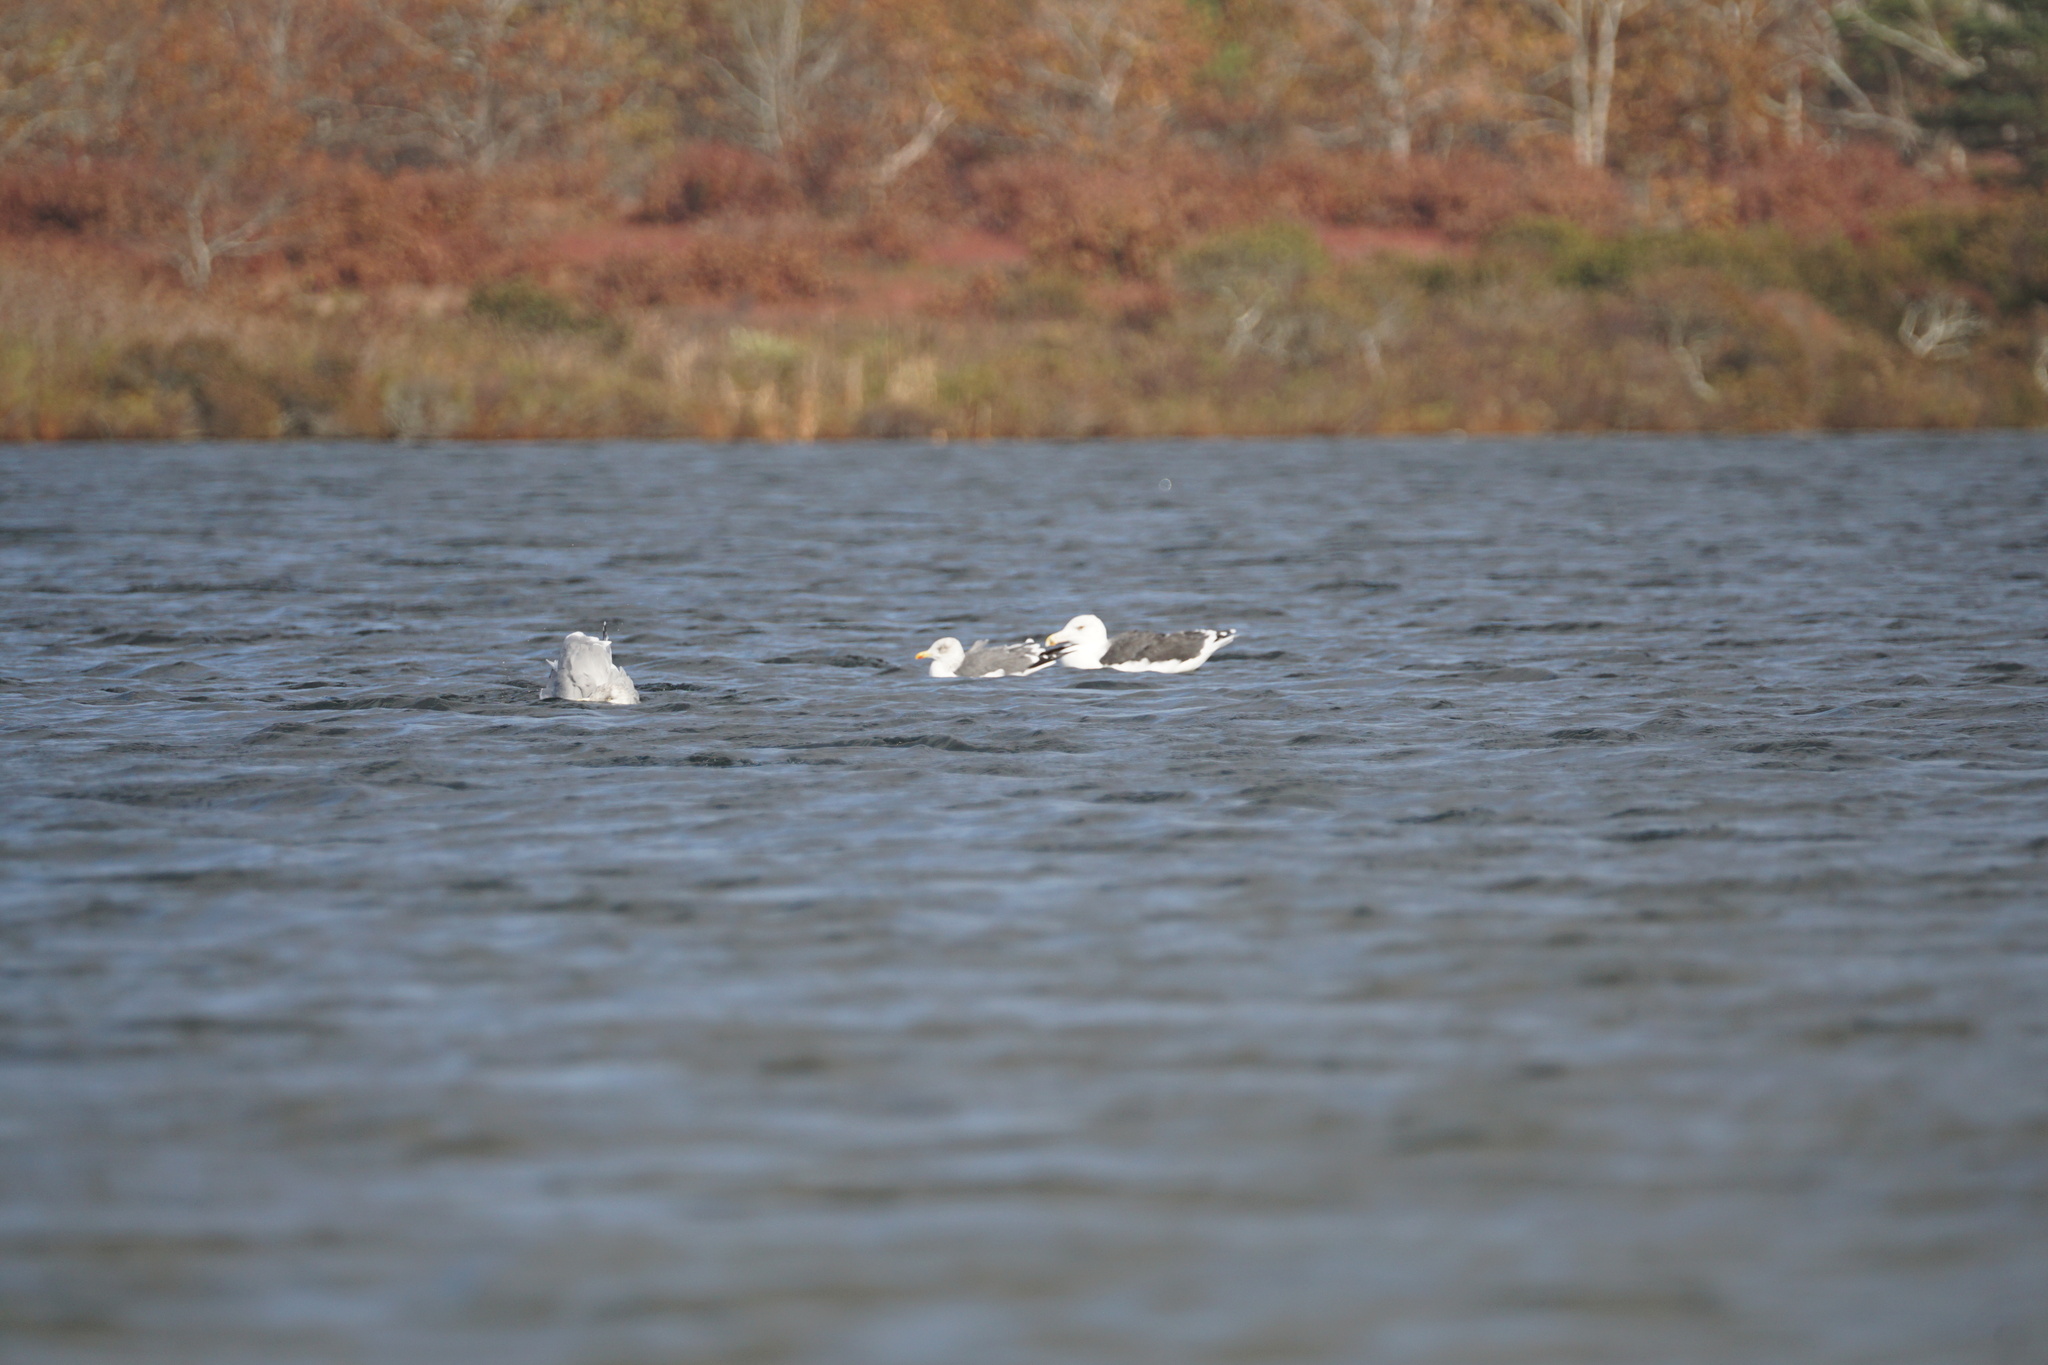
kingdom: Animalia
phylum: Chordata
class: Aves
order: Charadriiformes
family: Laridae
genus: Larus
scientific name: Larus marinus
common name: Great black-backed gull
